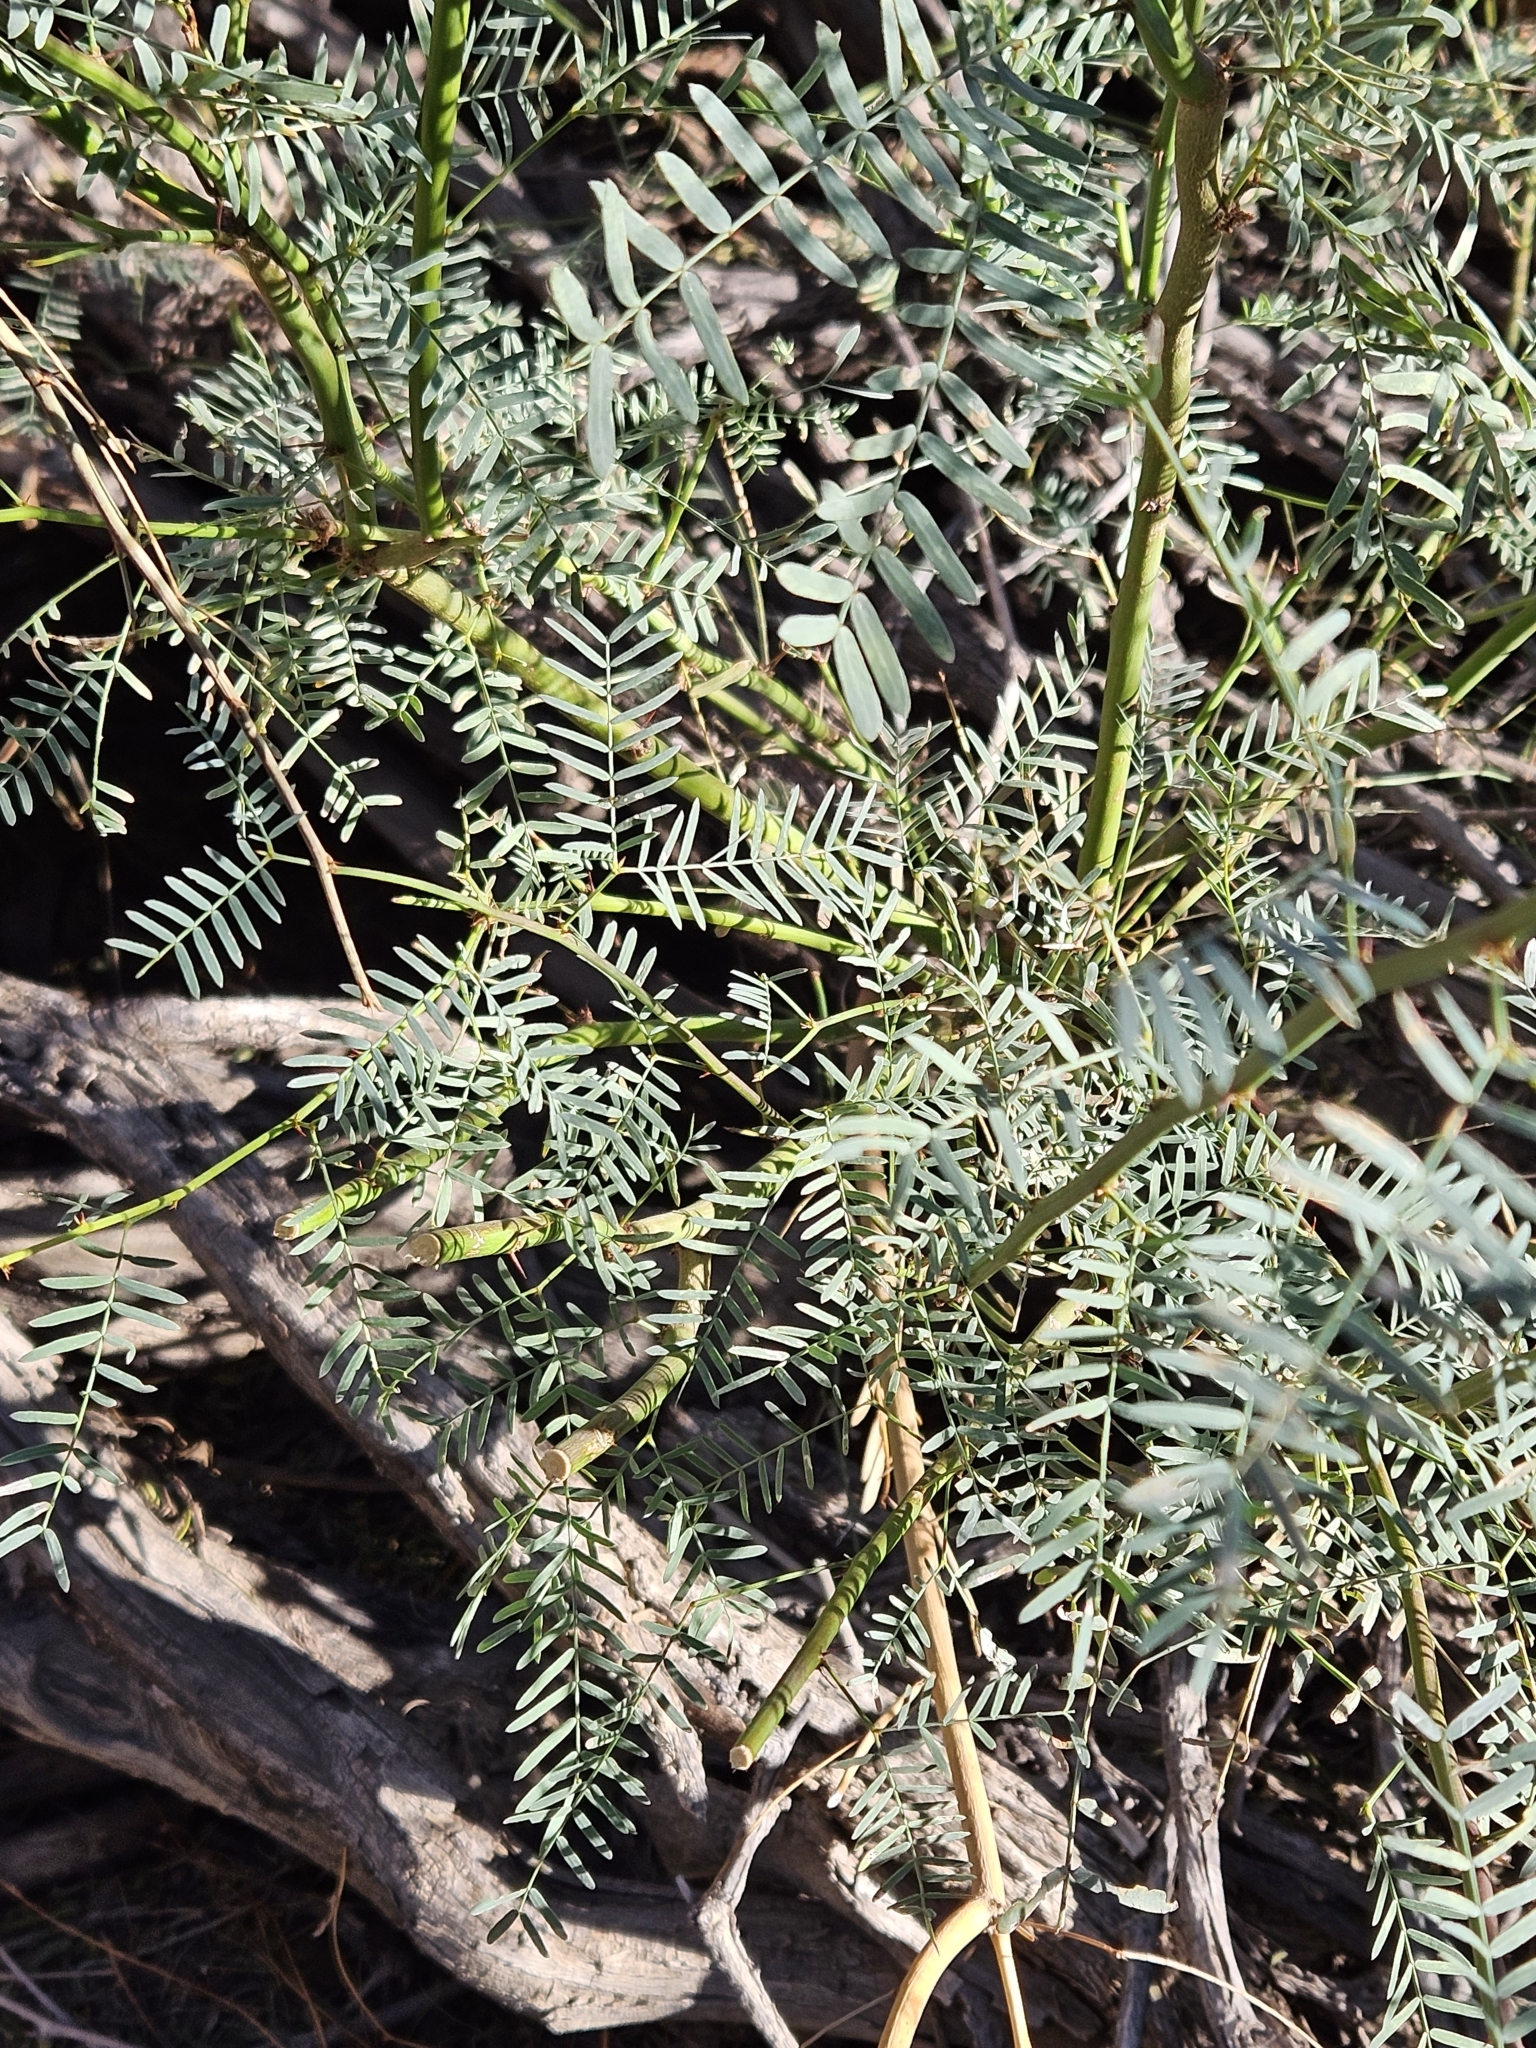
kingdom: Plantae
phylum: Tracheophyta
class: Magnoliopsida
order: Fabales
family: Fabaceae
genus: Prosopis
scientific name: Prosopis pubescens
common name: Screw-bean
